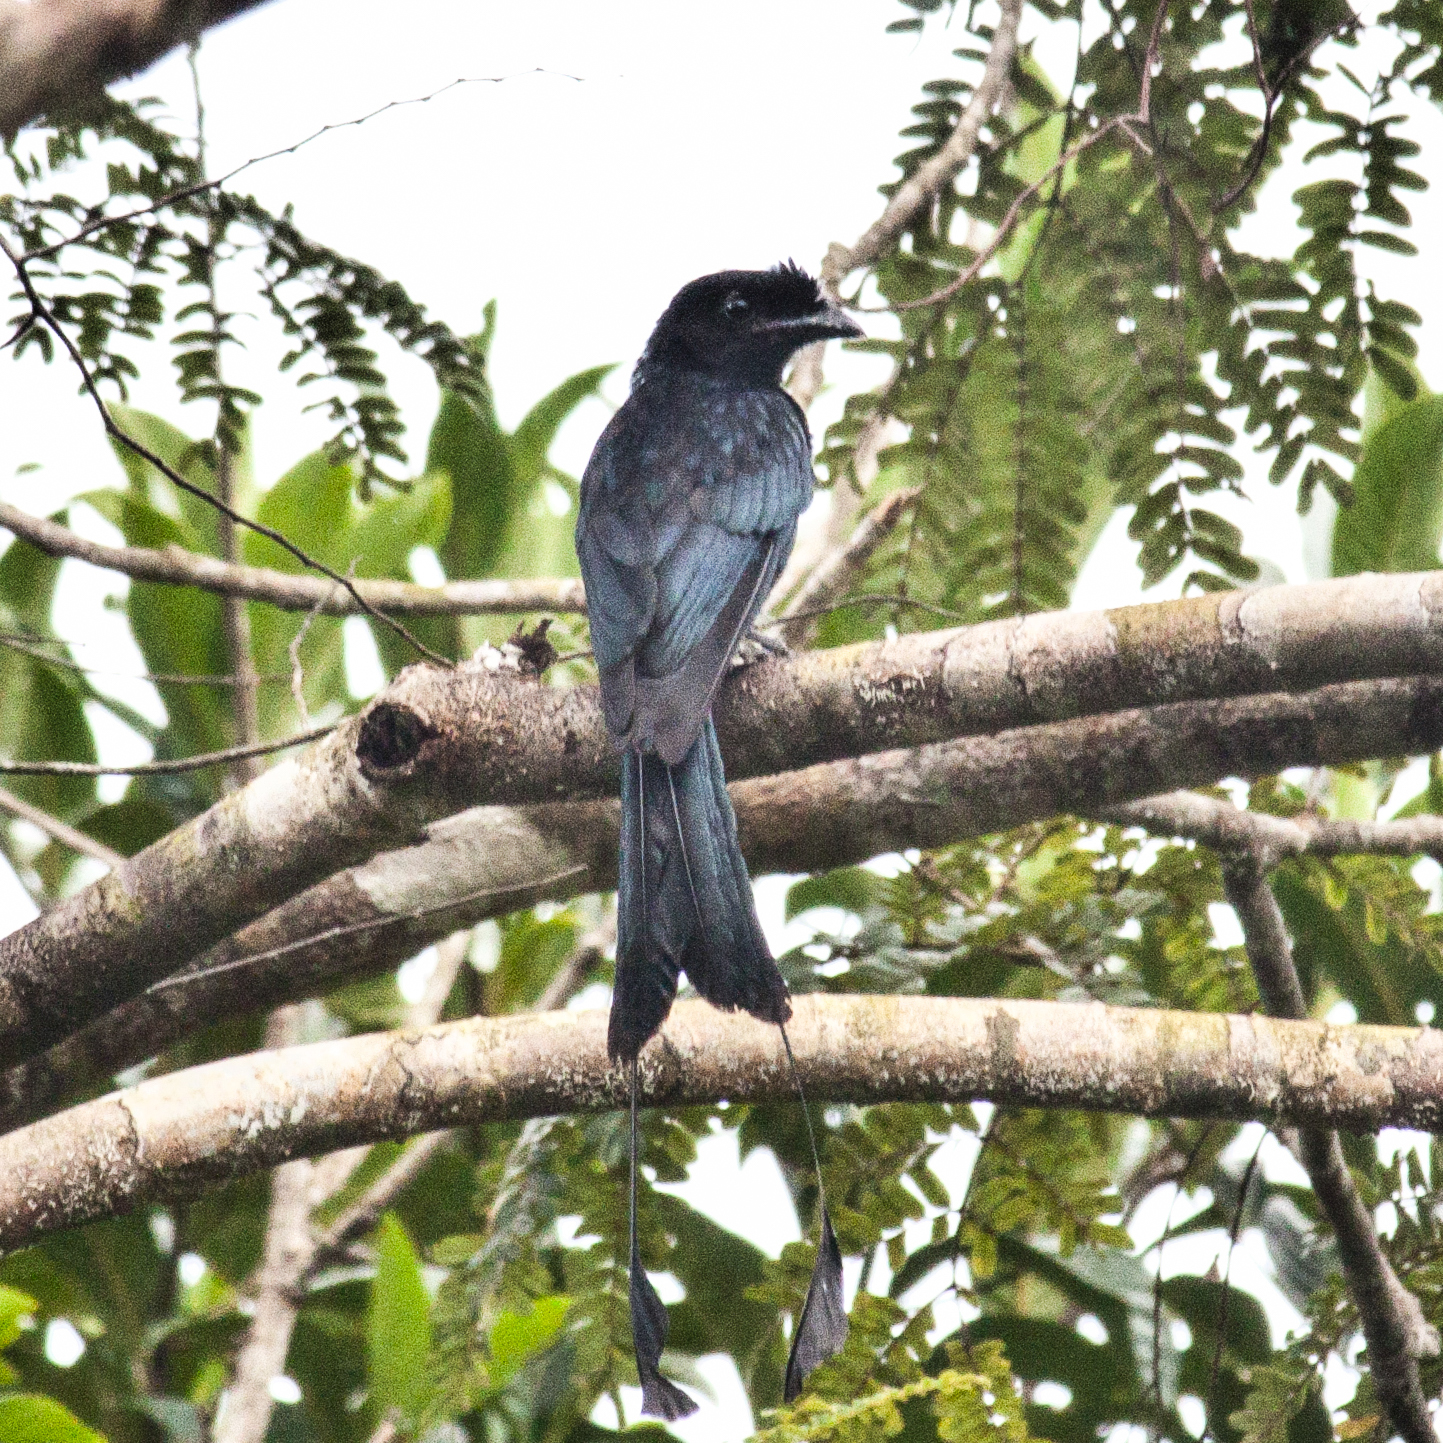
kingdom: Animalia
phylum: Chordata
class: Aves
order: Passeriformes
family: Dicruridae
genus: Dicrurus
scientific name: Dicrurus paradiseus
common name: Greater racket-tailed drongo
